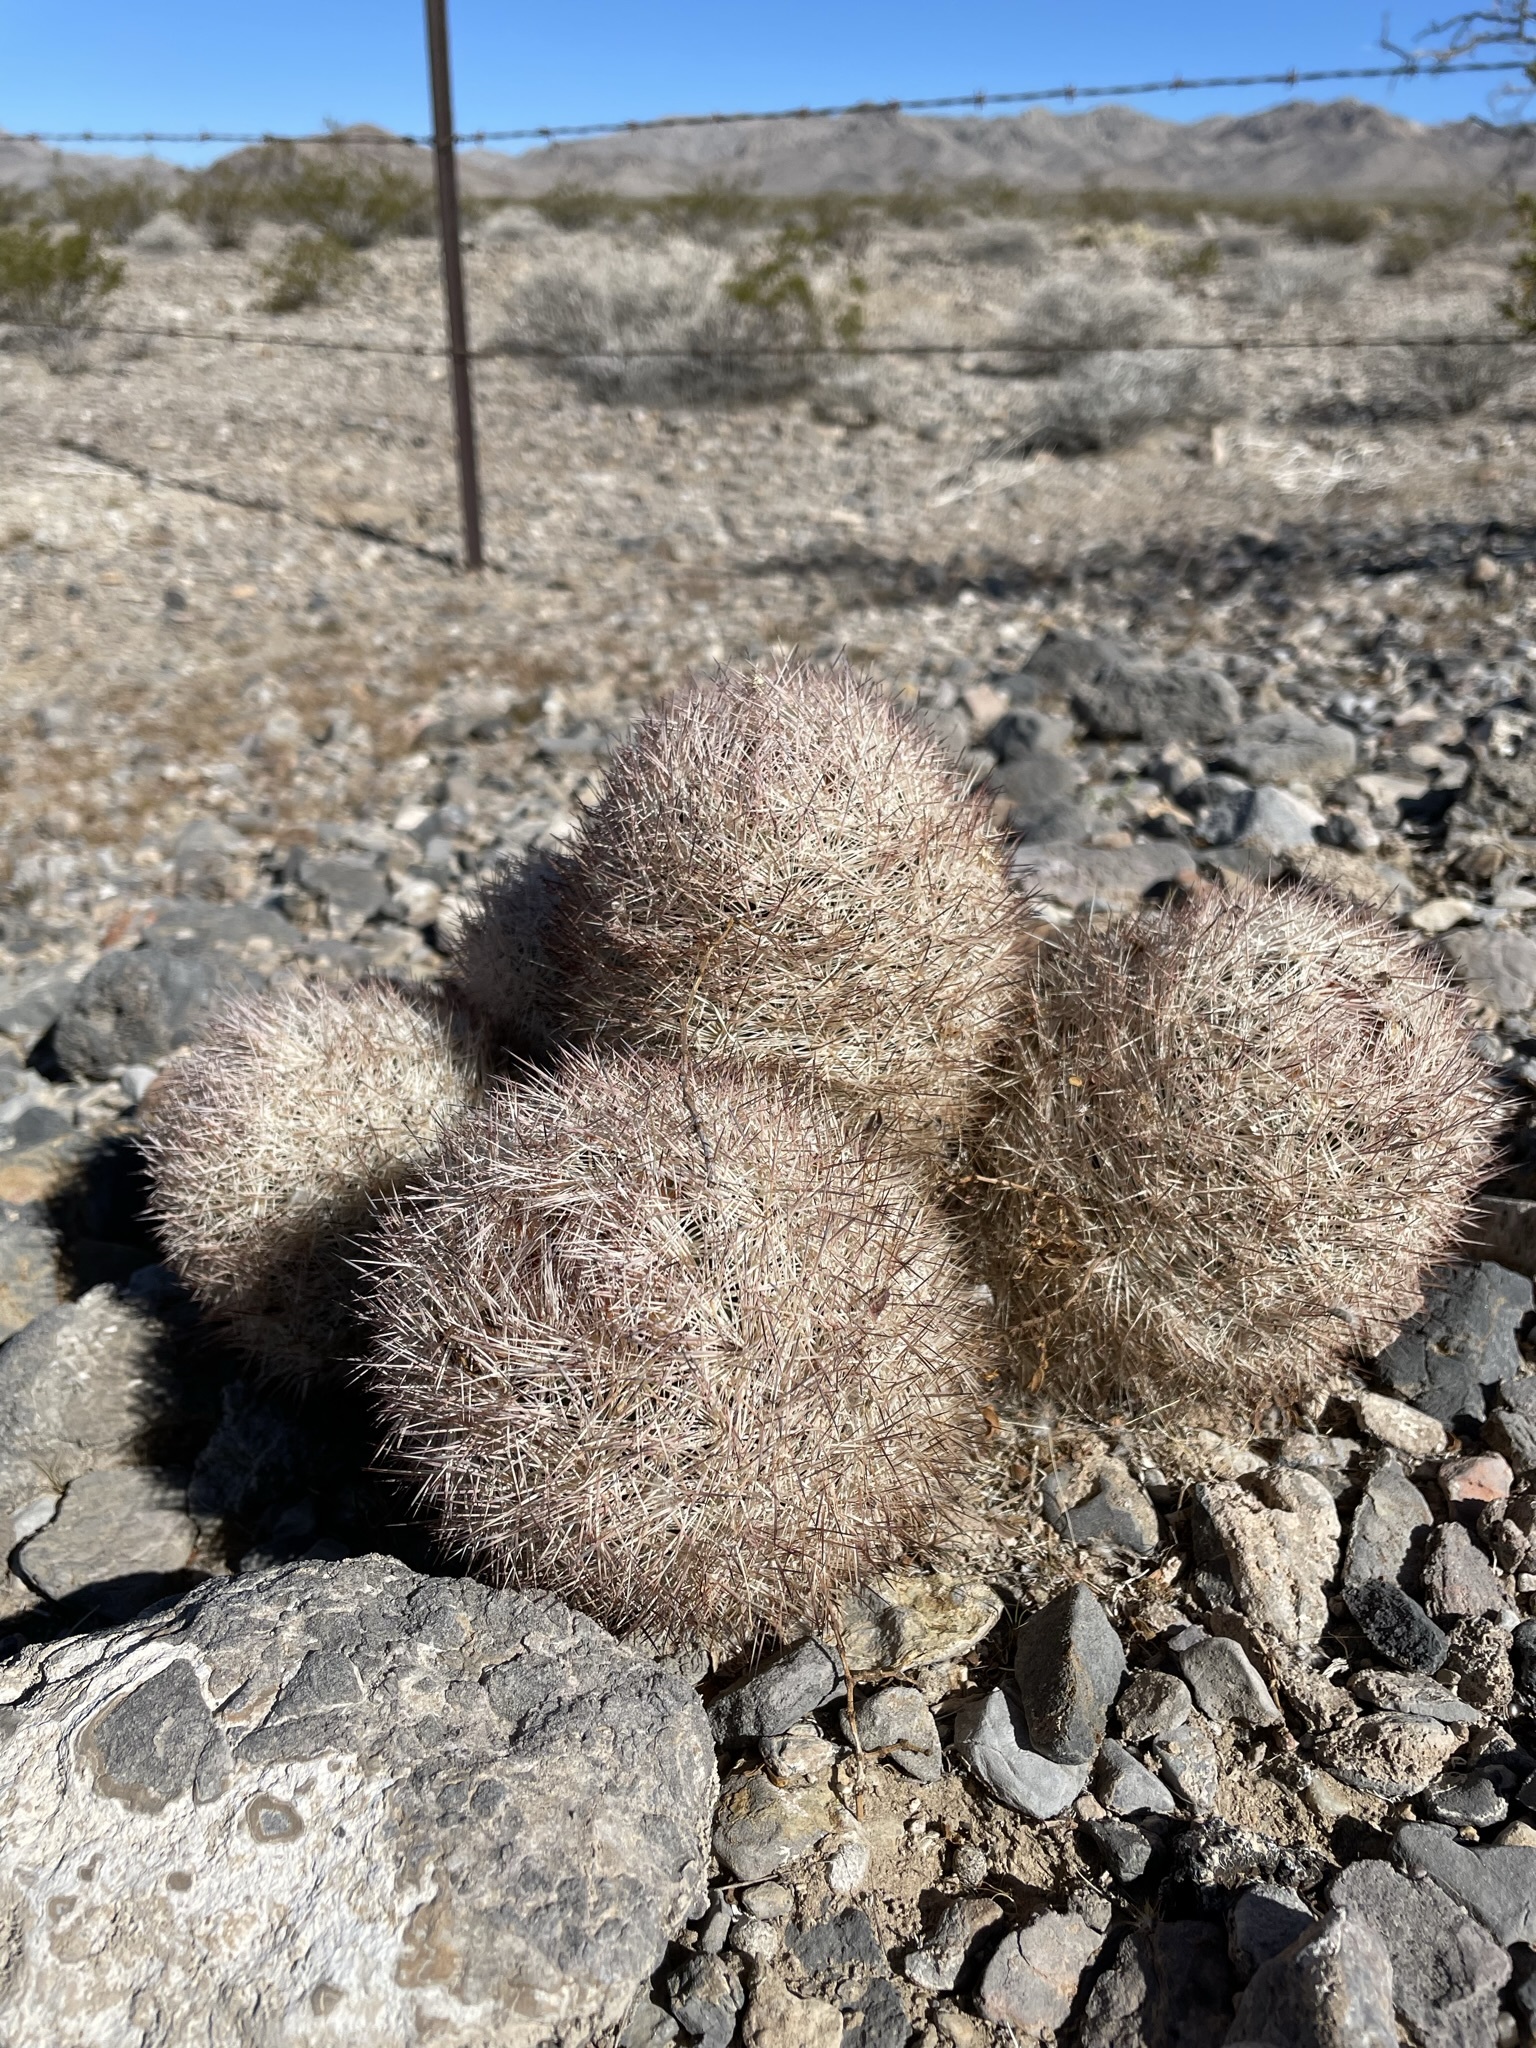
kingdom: Plantae
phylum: Tracheophyta
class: Magnoliopsida
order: Caryophyllales
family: Cactaceae
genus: Pelecyphora
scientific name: Pelecyphora dasyacantha
